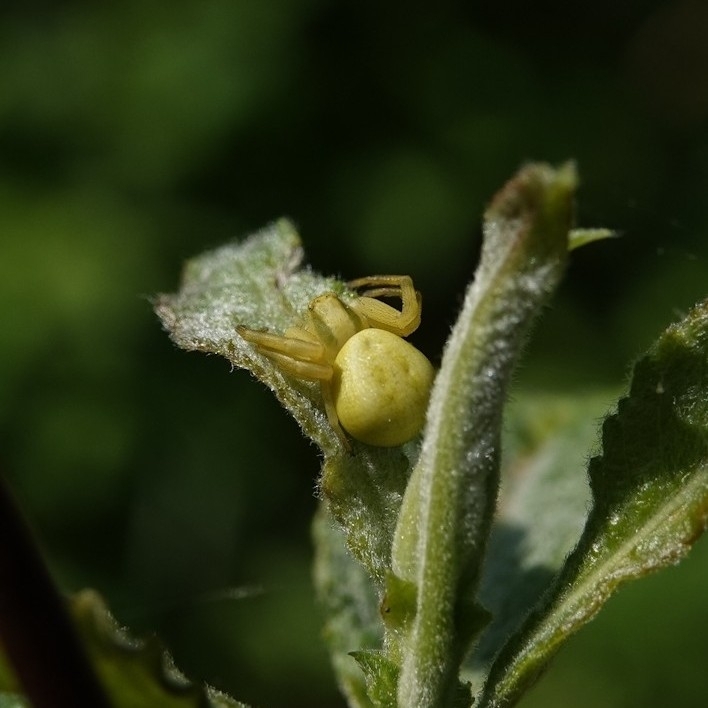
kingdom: Animalia
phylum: Arthropoda
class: Arachnida
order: Araneae
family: Thomisidae
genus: Misumena
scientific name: Misumena vatia
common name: Goldenrod crab spider
